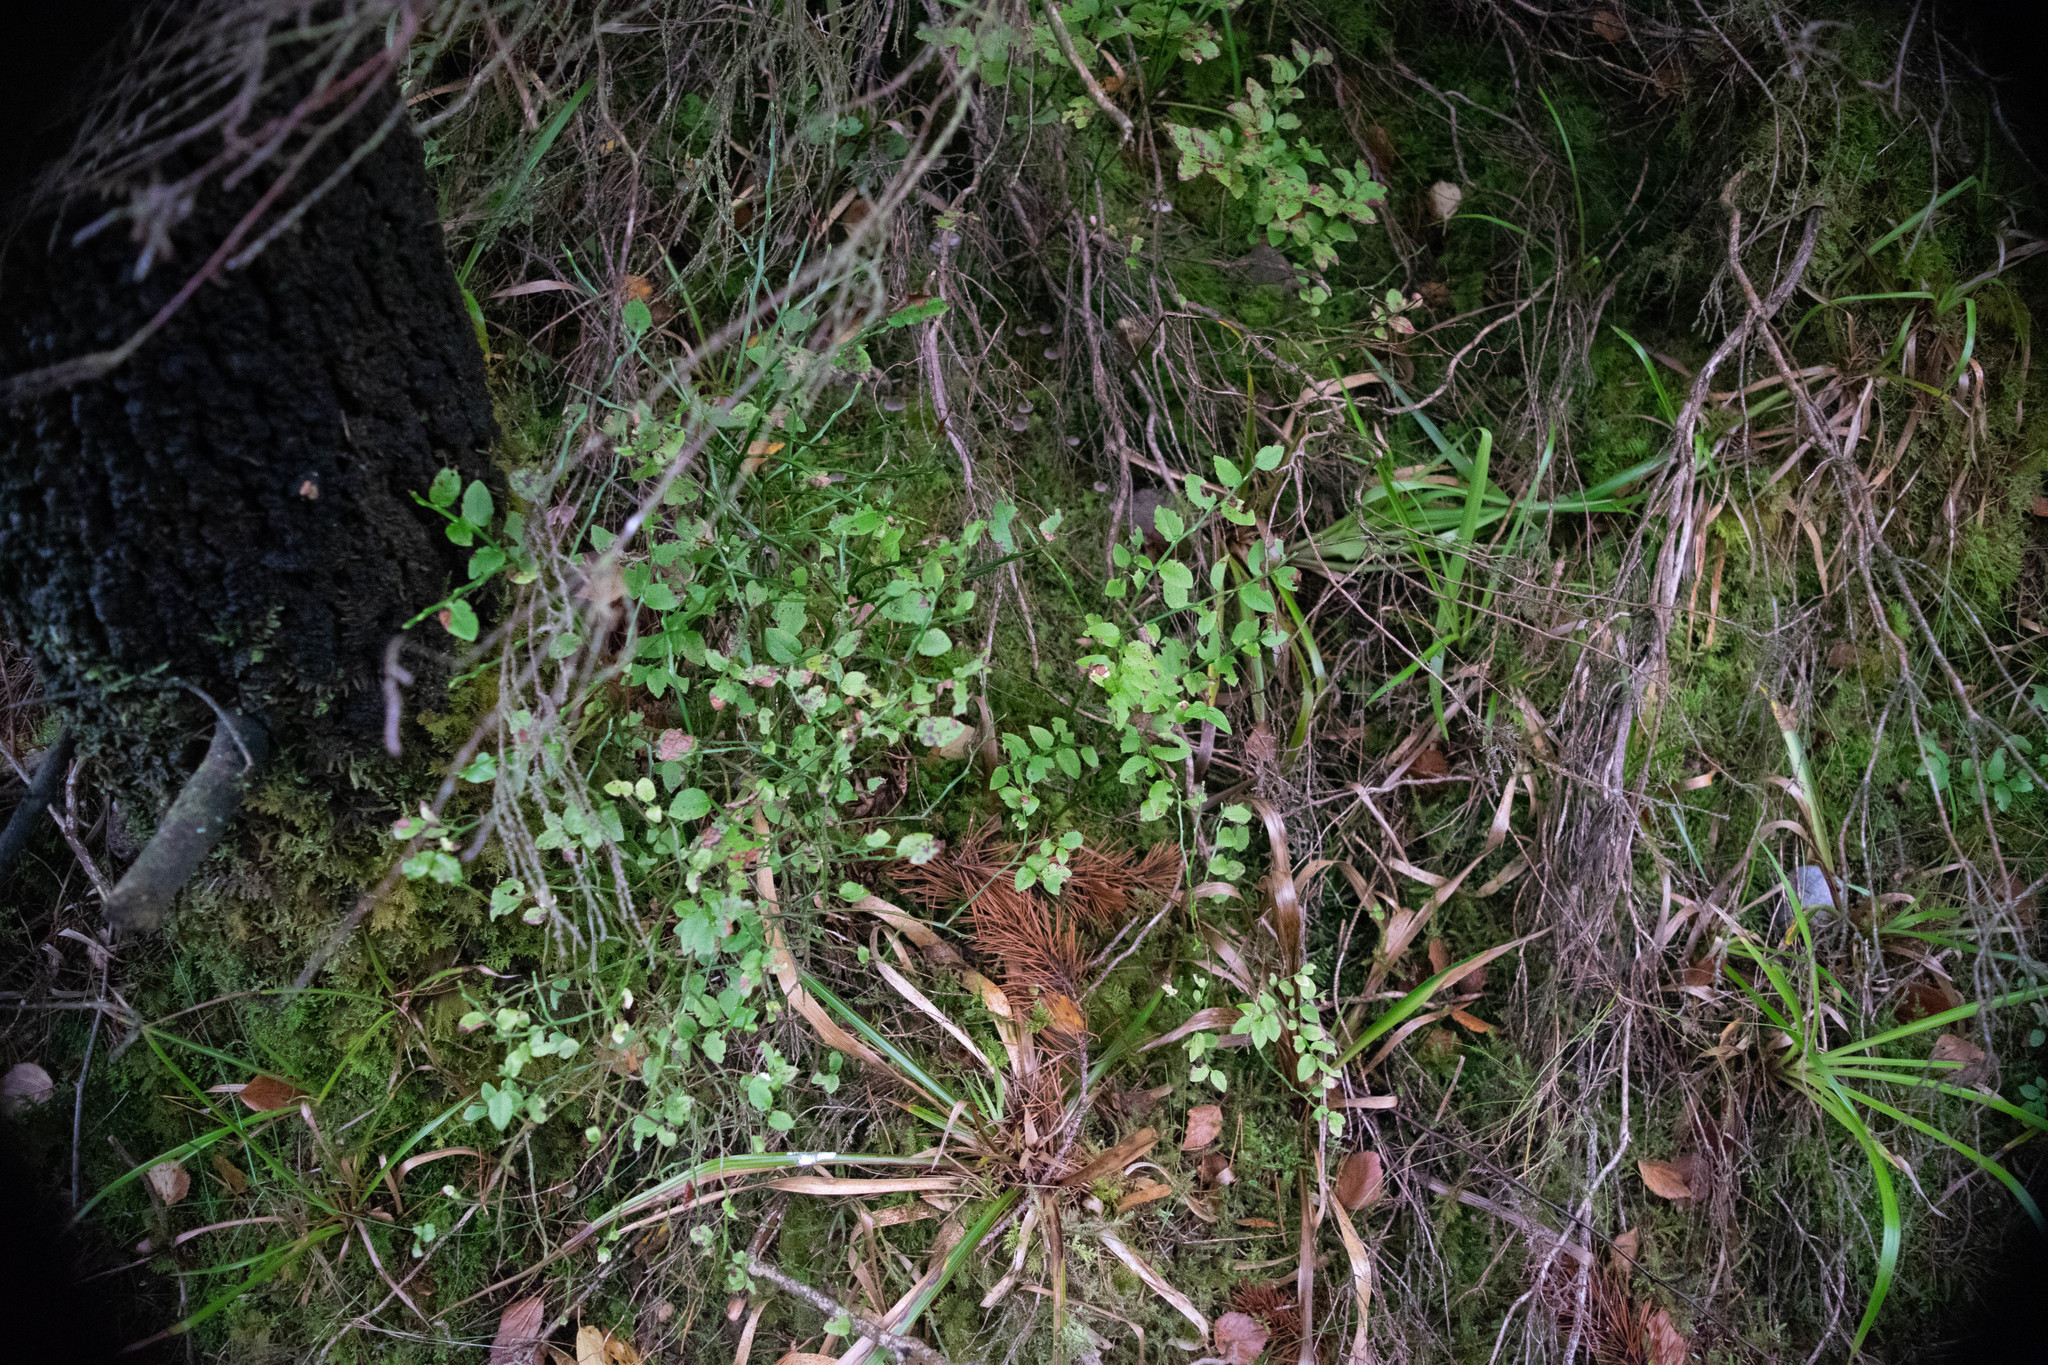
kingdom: Plantae
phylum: Tracheophyta
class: Magnoliopsida
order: Ericales
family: Ericaceae
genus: Vaccinium
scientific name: Vaccinium myrtillus
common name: Bilberry
